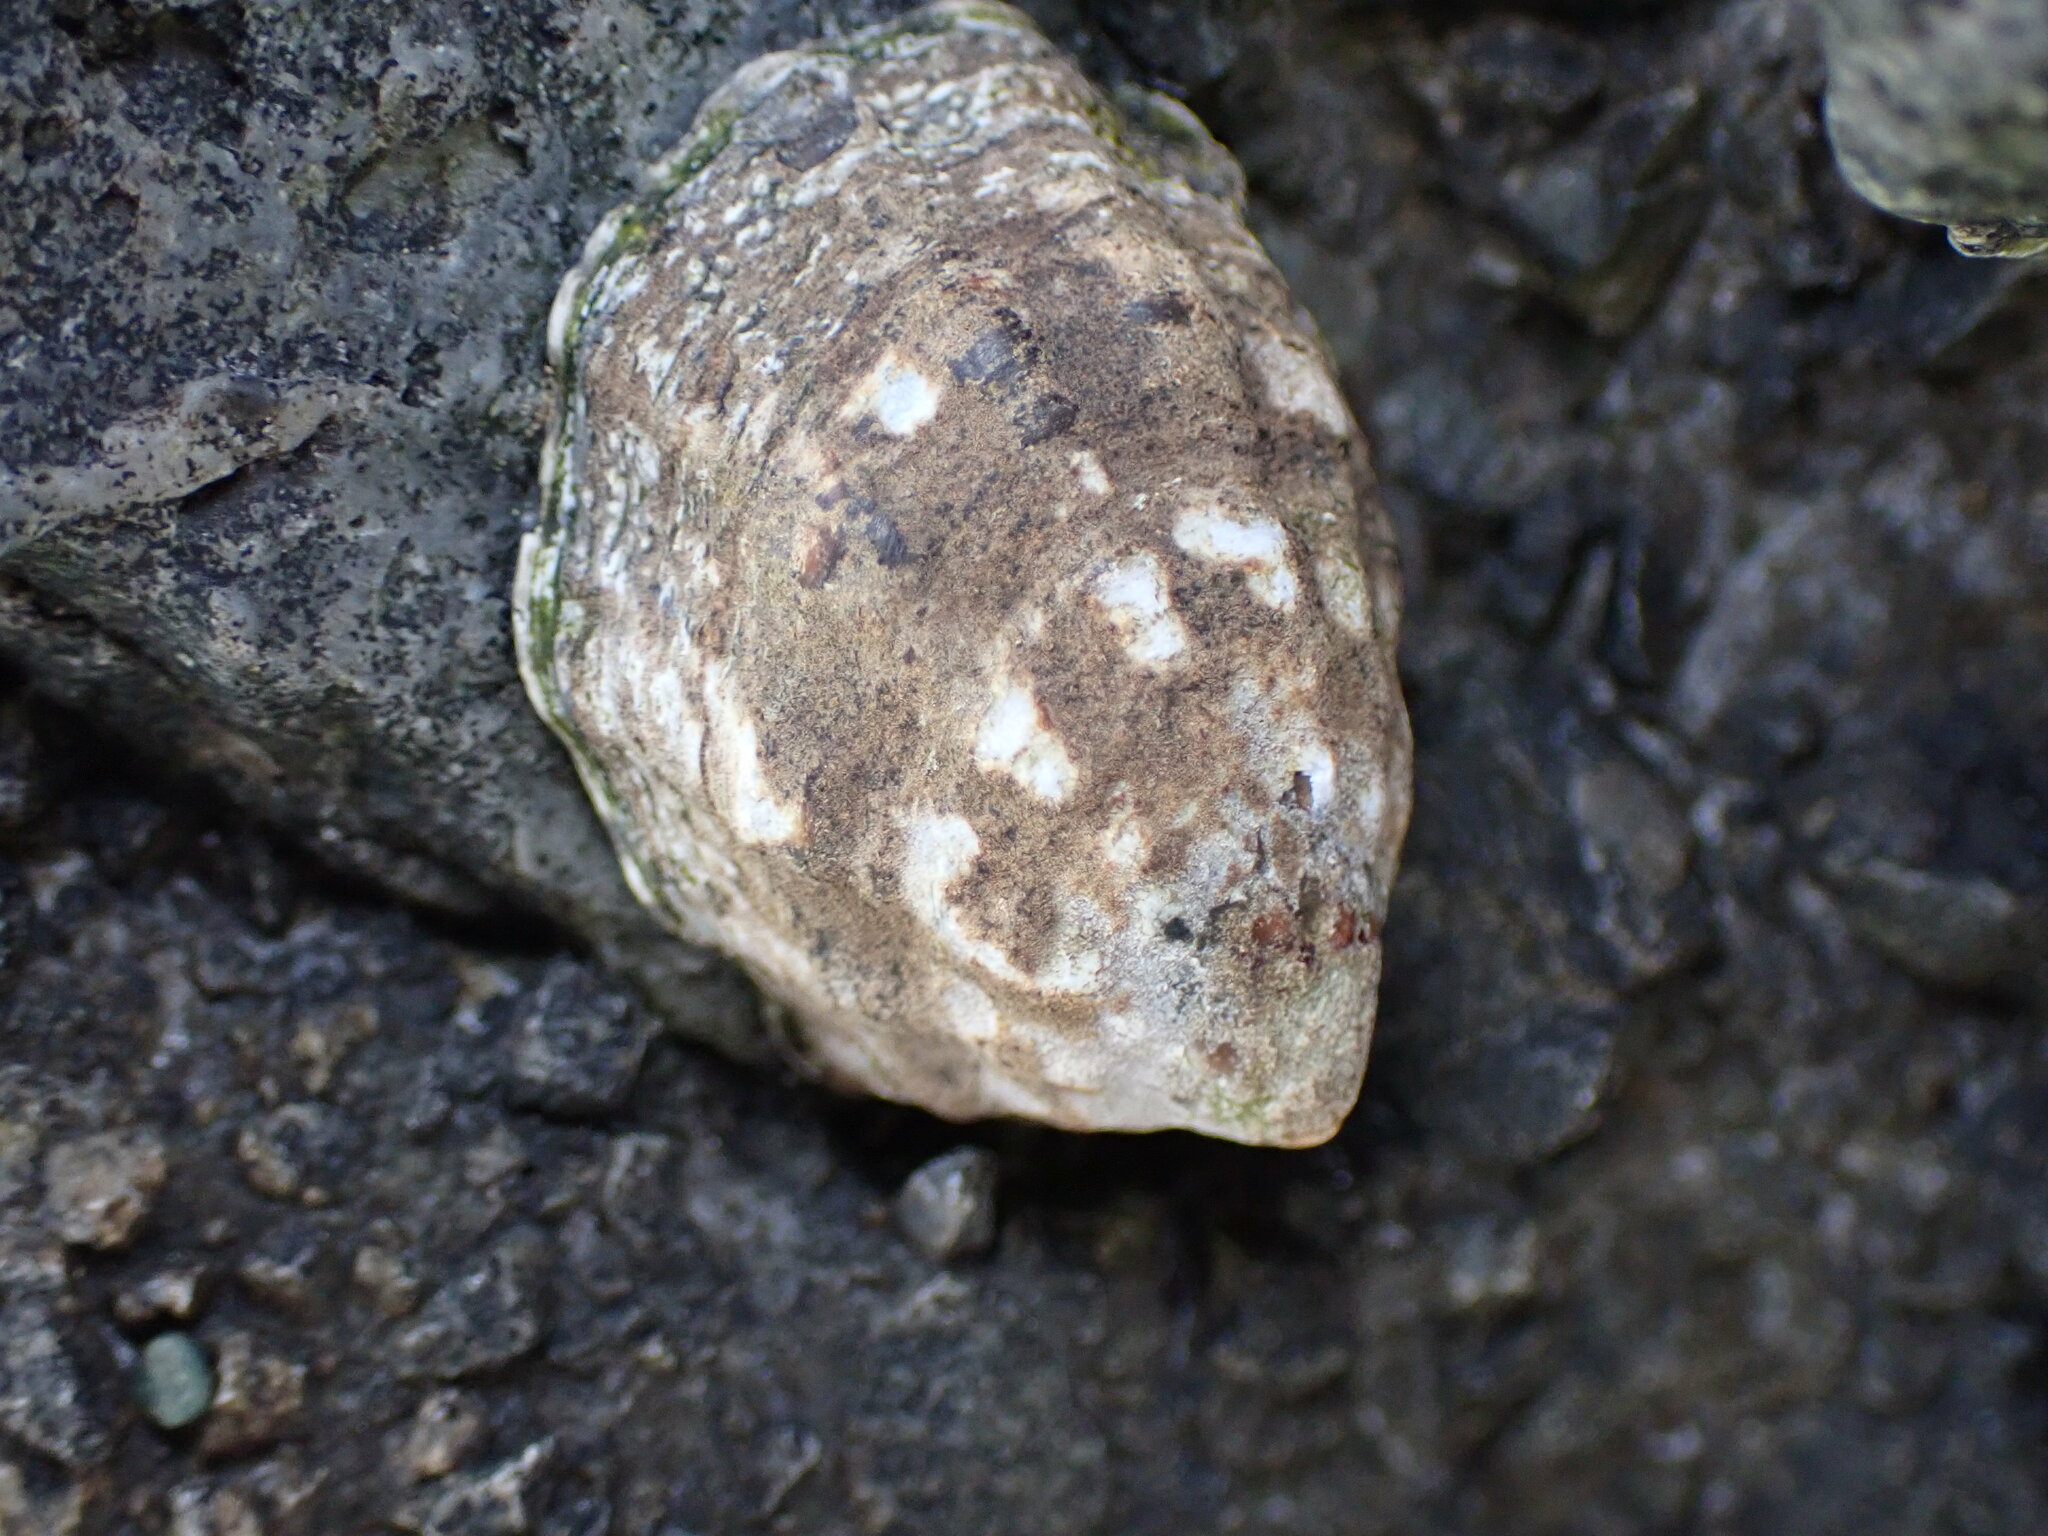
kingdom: Animalia
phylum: Mollusca
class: Gastropoda
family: Lottiidae
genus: Lottia
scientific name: Lottia digitalis
